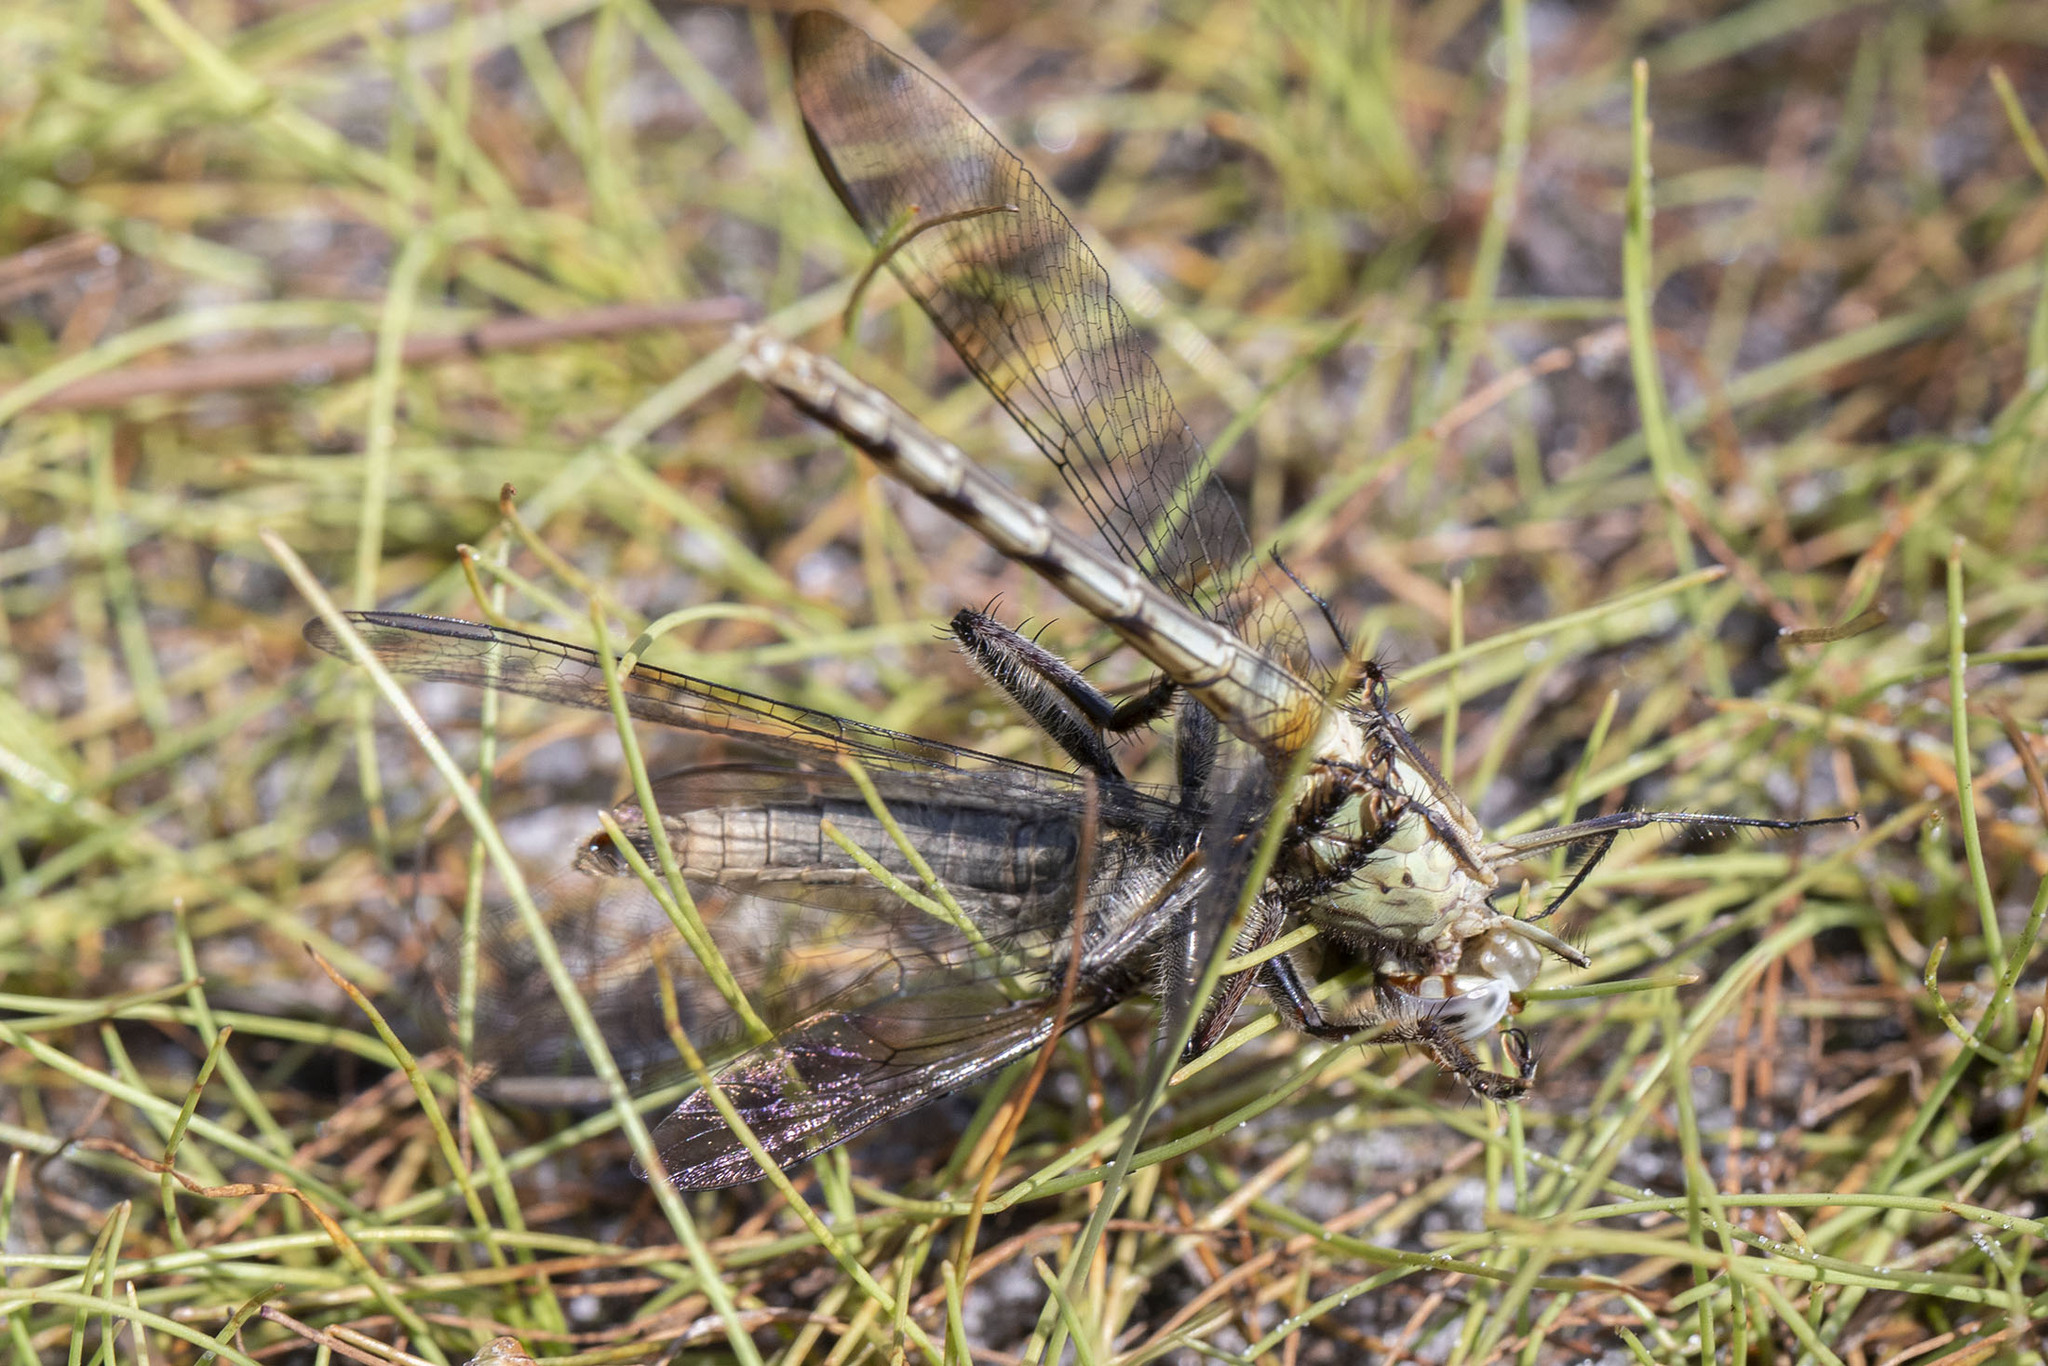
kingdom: Animalia
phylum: Arthropoda
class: Insecta
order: Diptera
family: Asilidae
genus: Triorla
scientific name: Triorla interrupta
